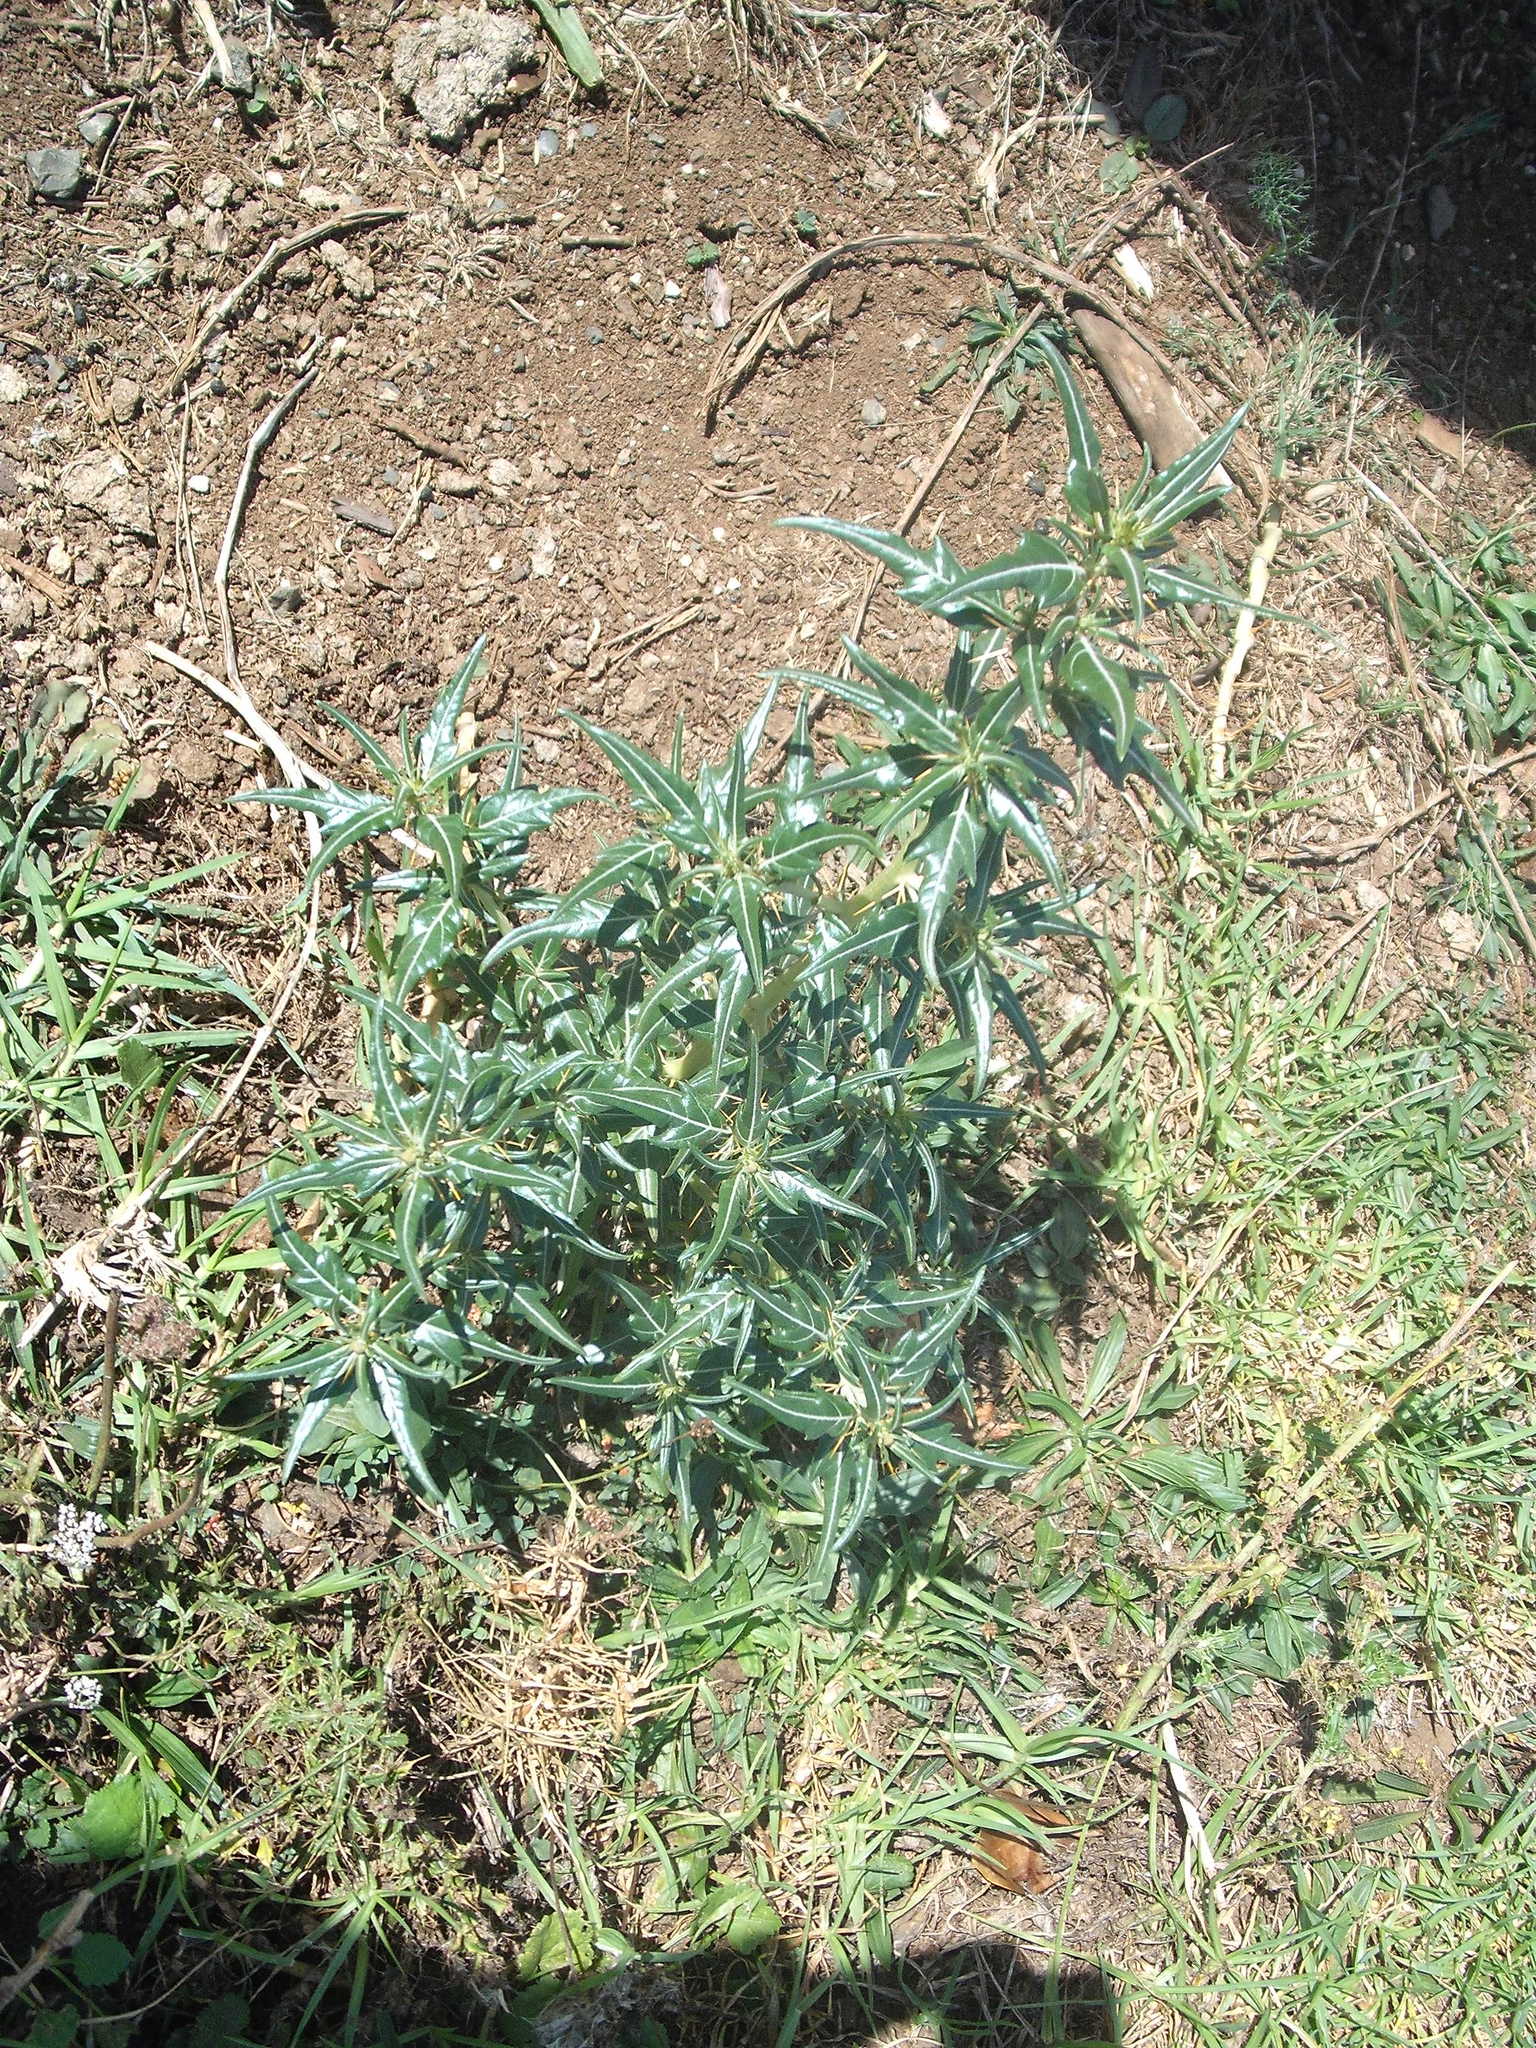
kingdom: Plantae
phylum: Tracheophyta
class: Magnoliopsida
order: Asterales
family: Asteraceae
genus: Xanthium
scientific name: Xanthium spinosum
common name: Spiny cocklebur
